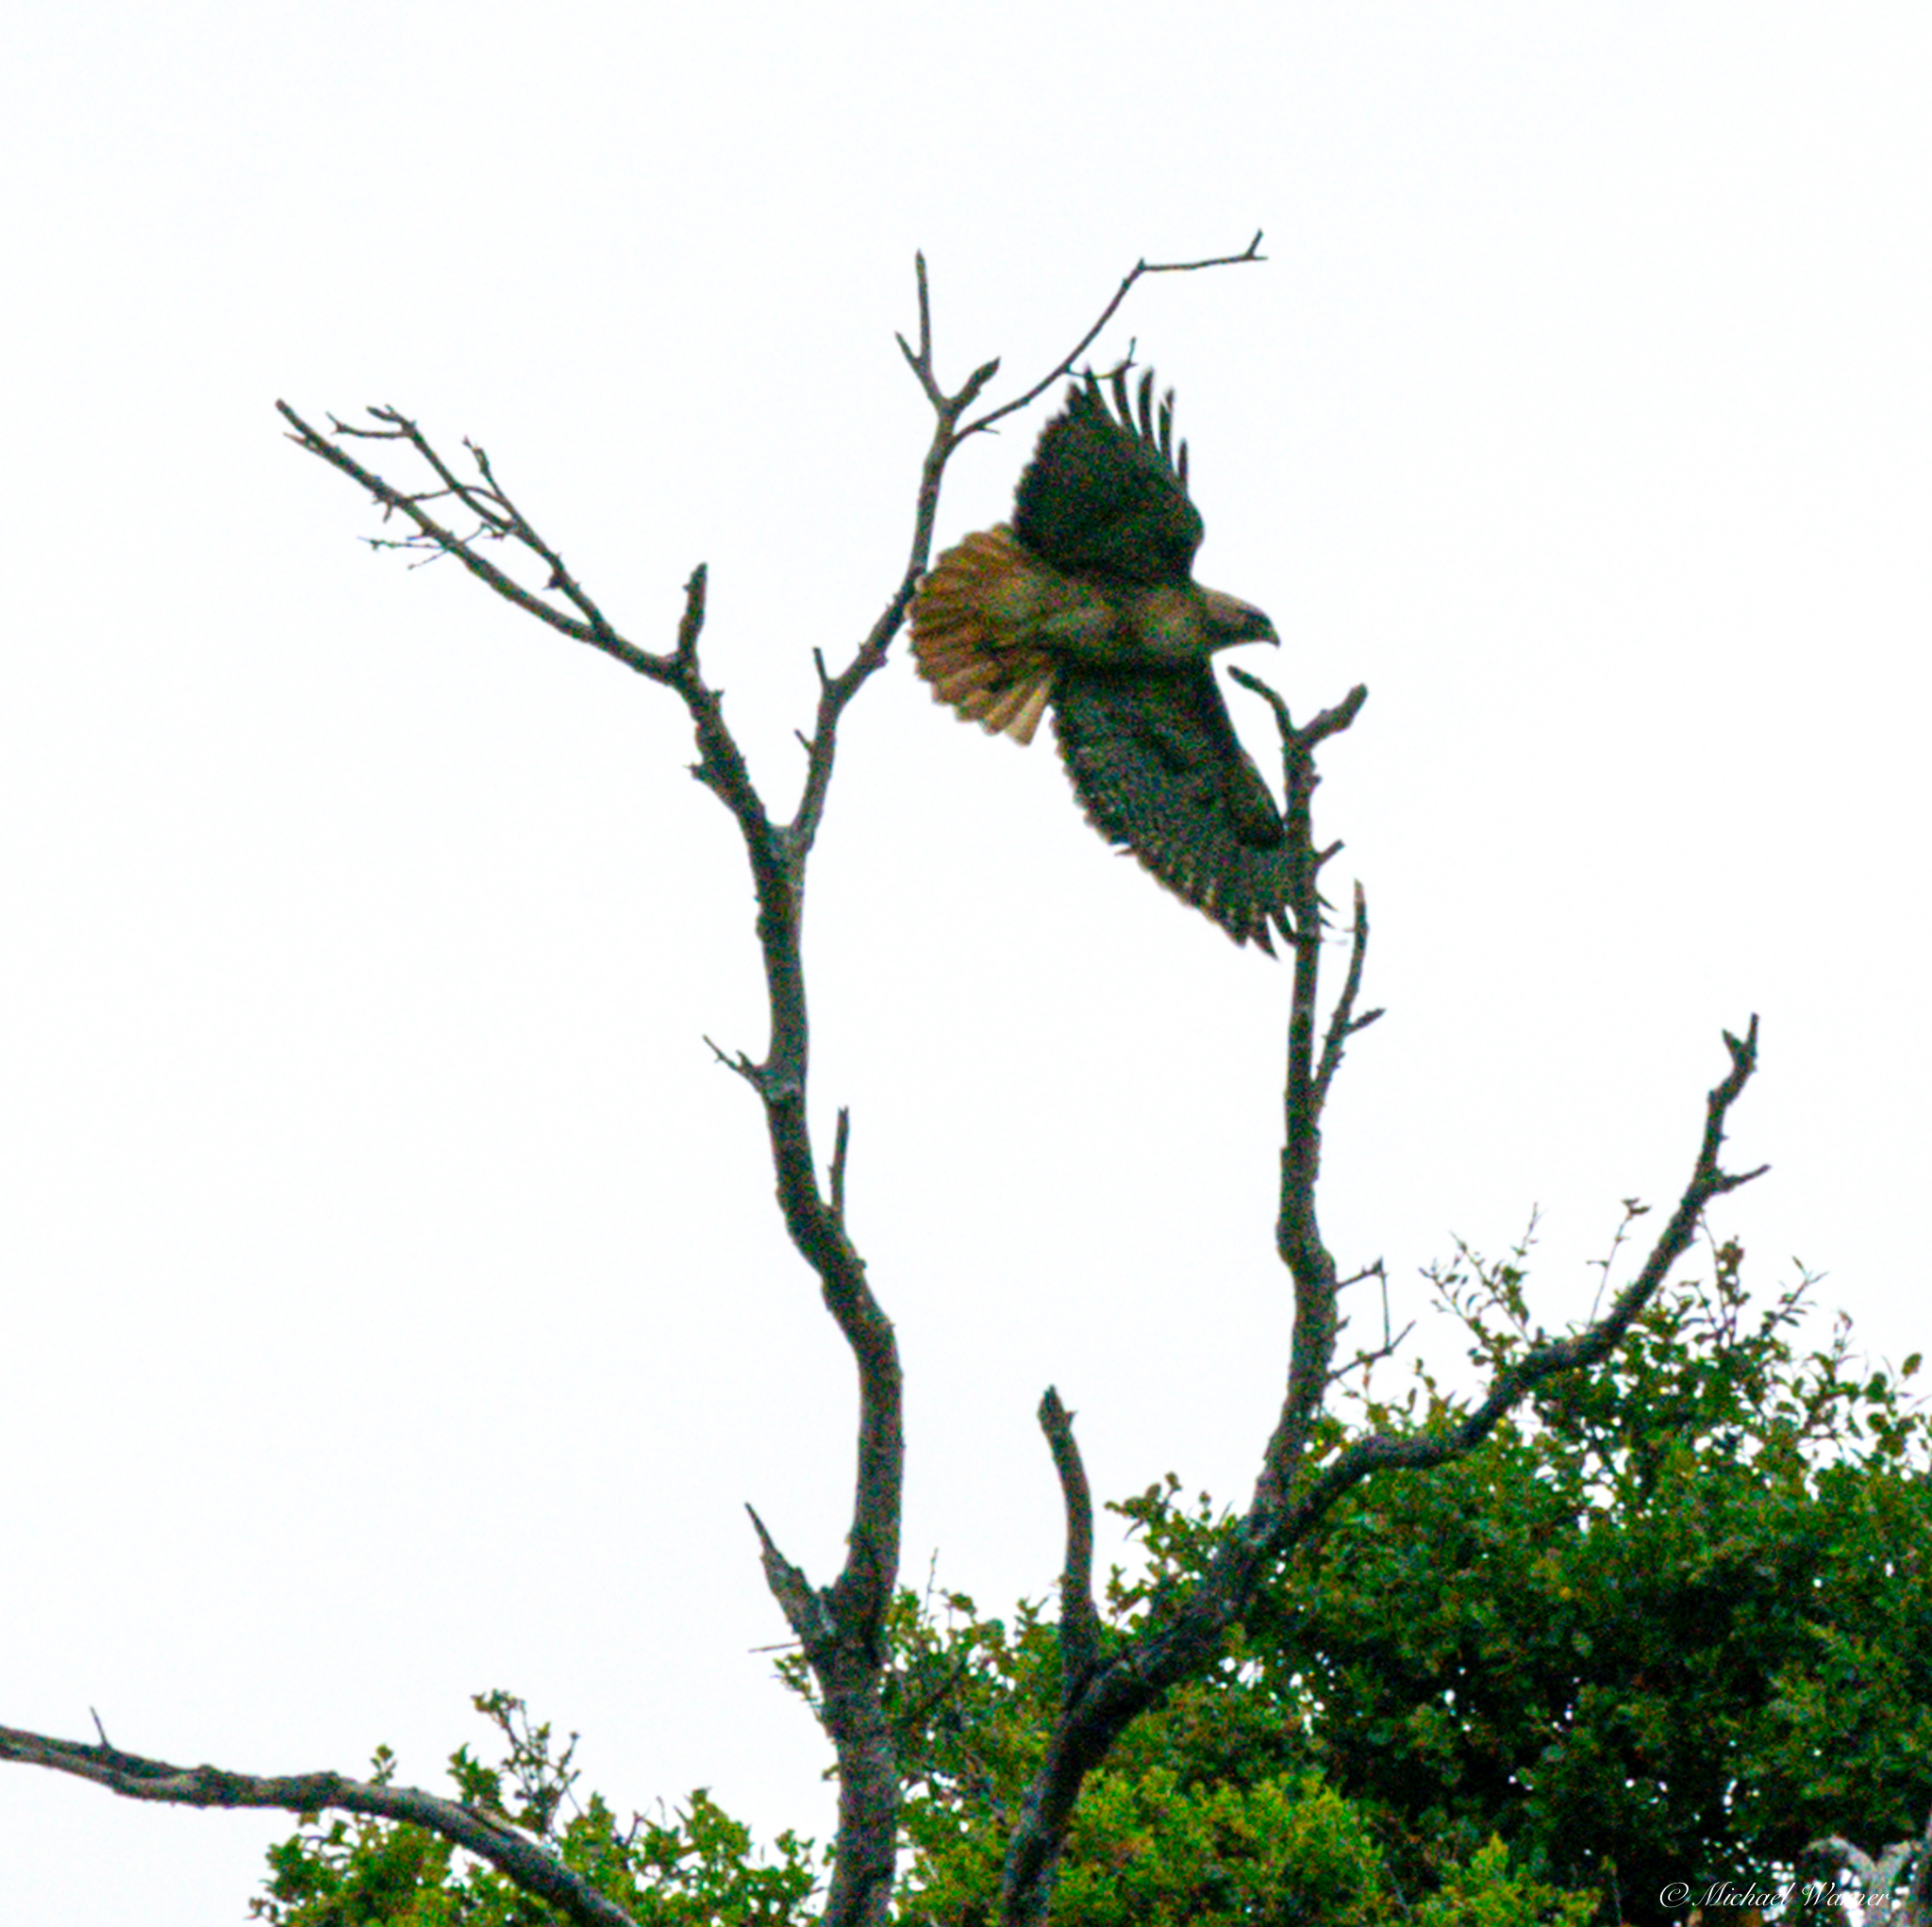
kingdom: Animalia
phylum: Chordata
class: Aves
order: Accipitriformes
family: Accipitridae
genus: Buteo
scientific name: Buteo jamaicensis
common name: Red-tailed hawk
